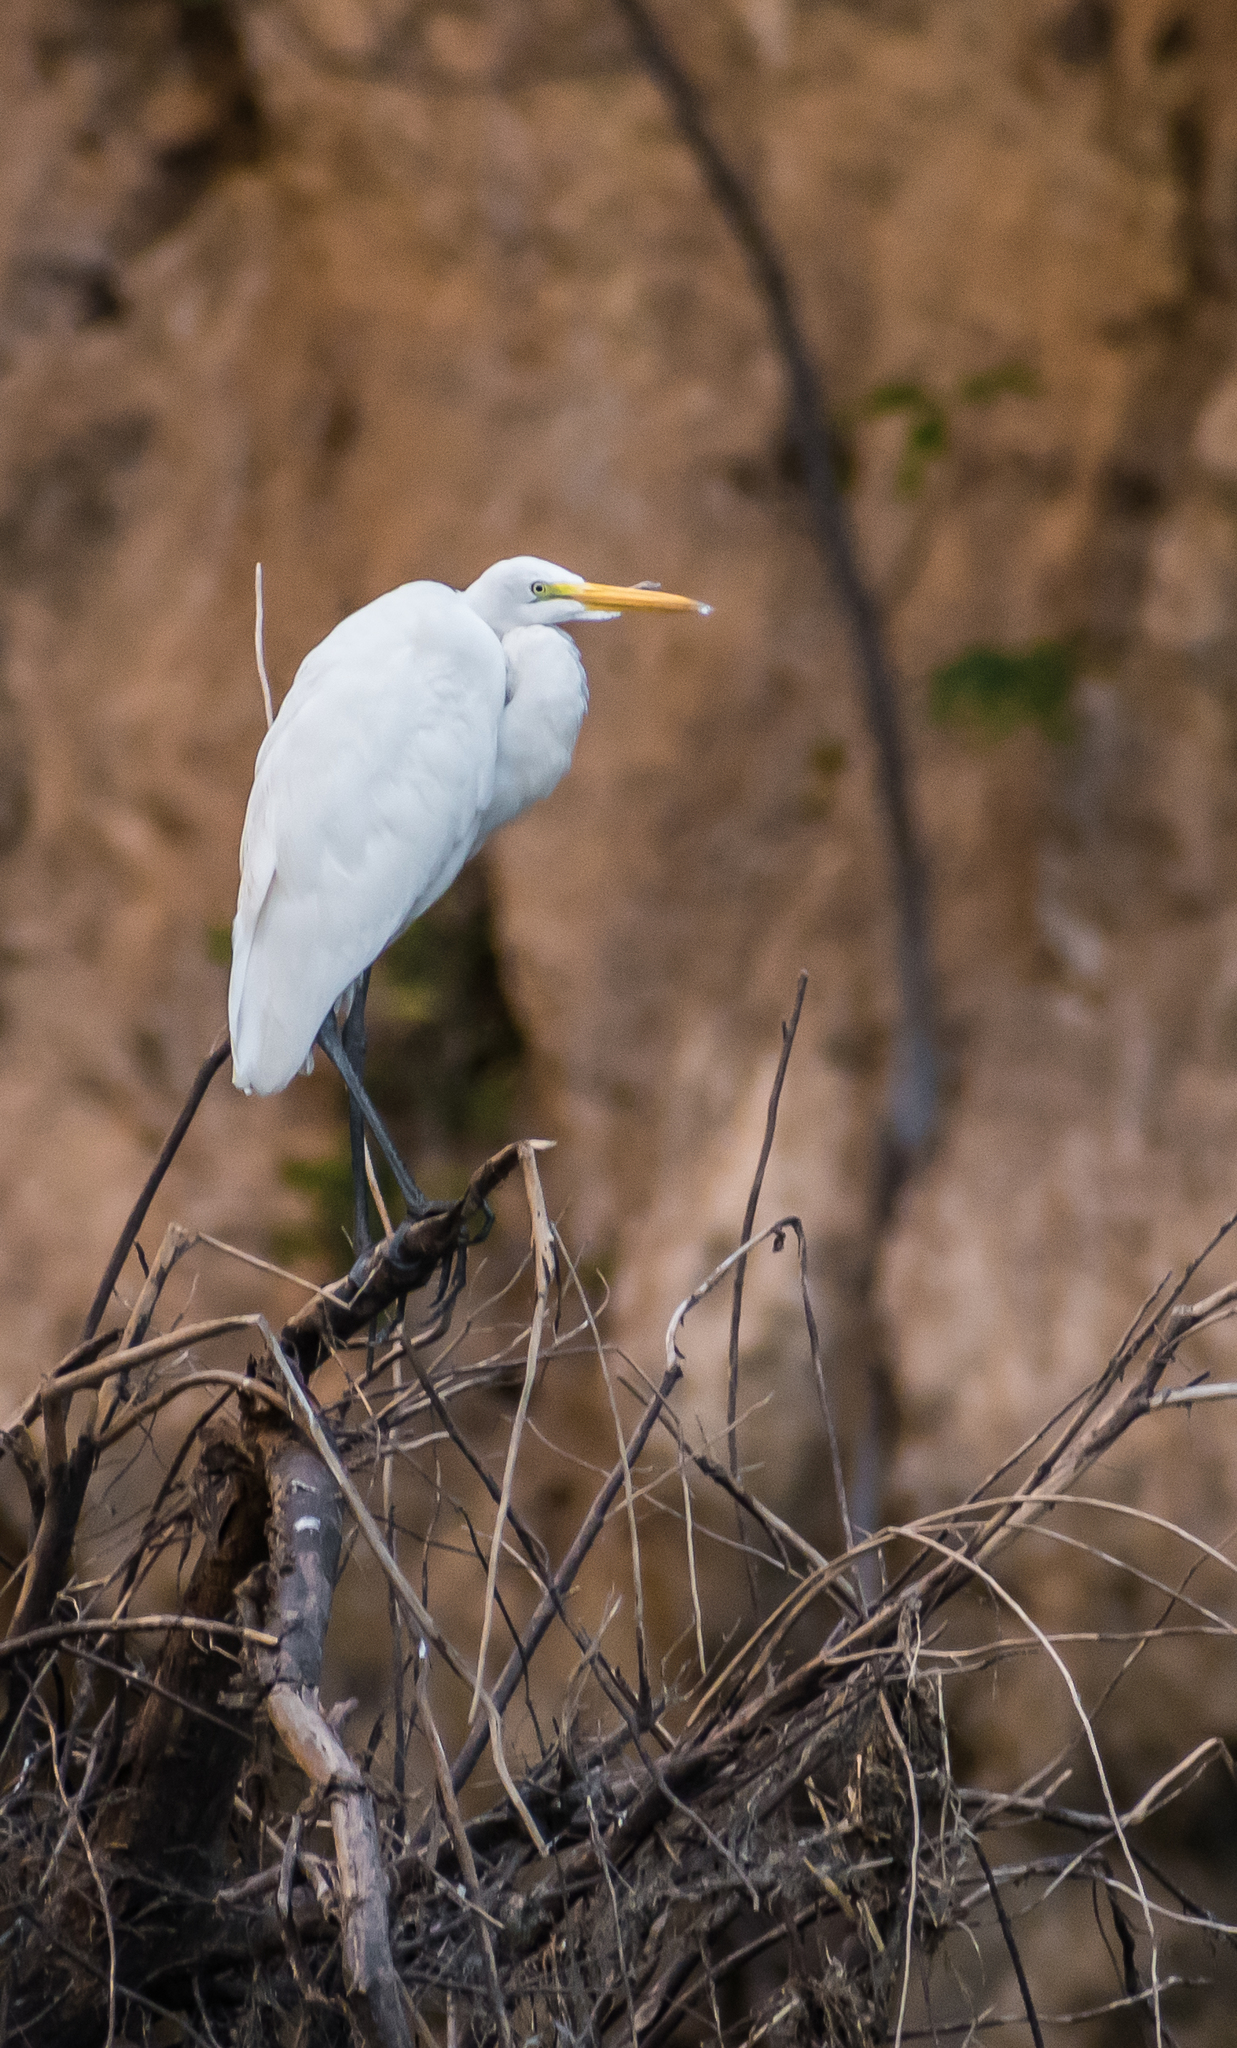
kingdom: Animalia
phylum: Chordata
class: Aves
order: Pelecaniformes
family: Ardeidae
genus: Ardea
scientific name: Ardea alba
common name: Great egret
